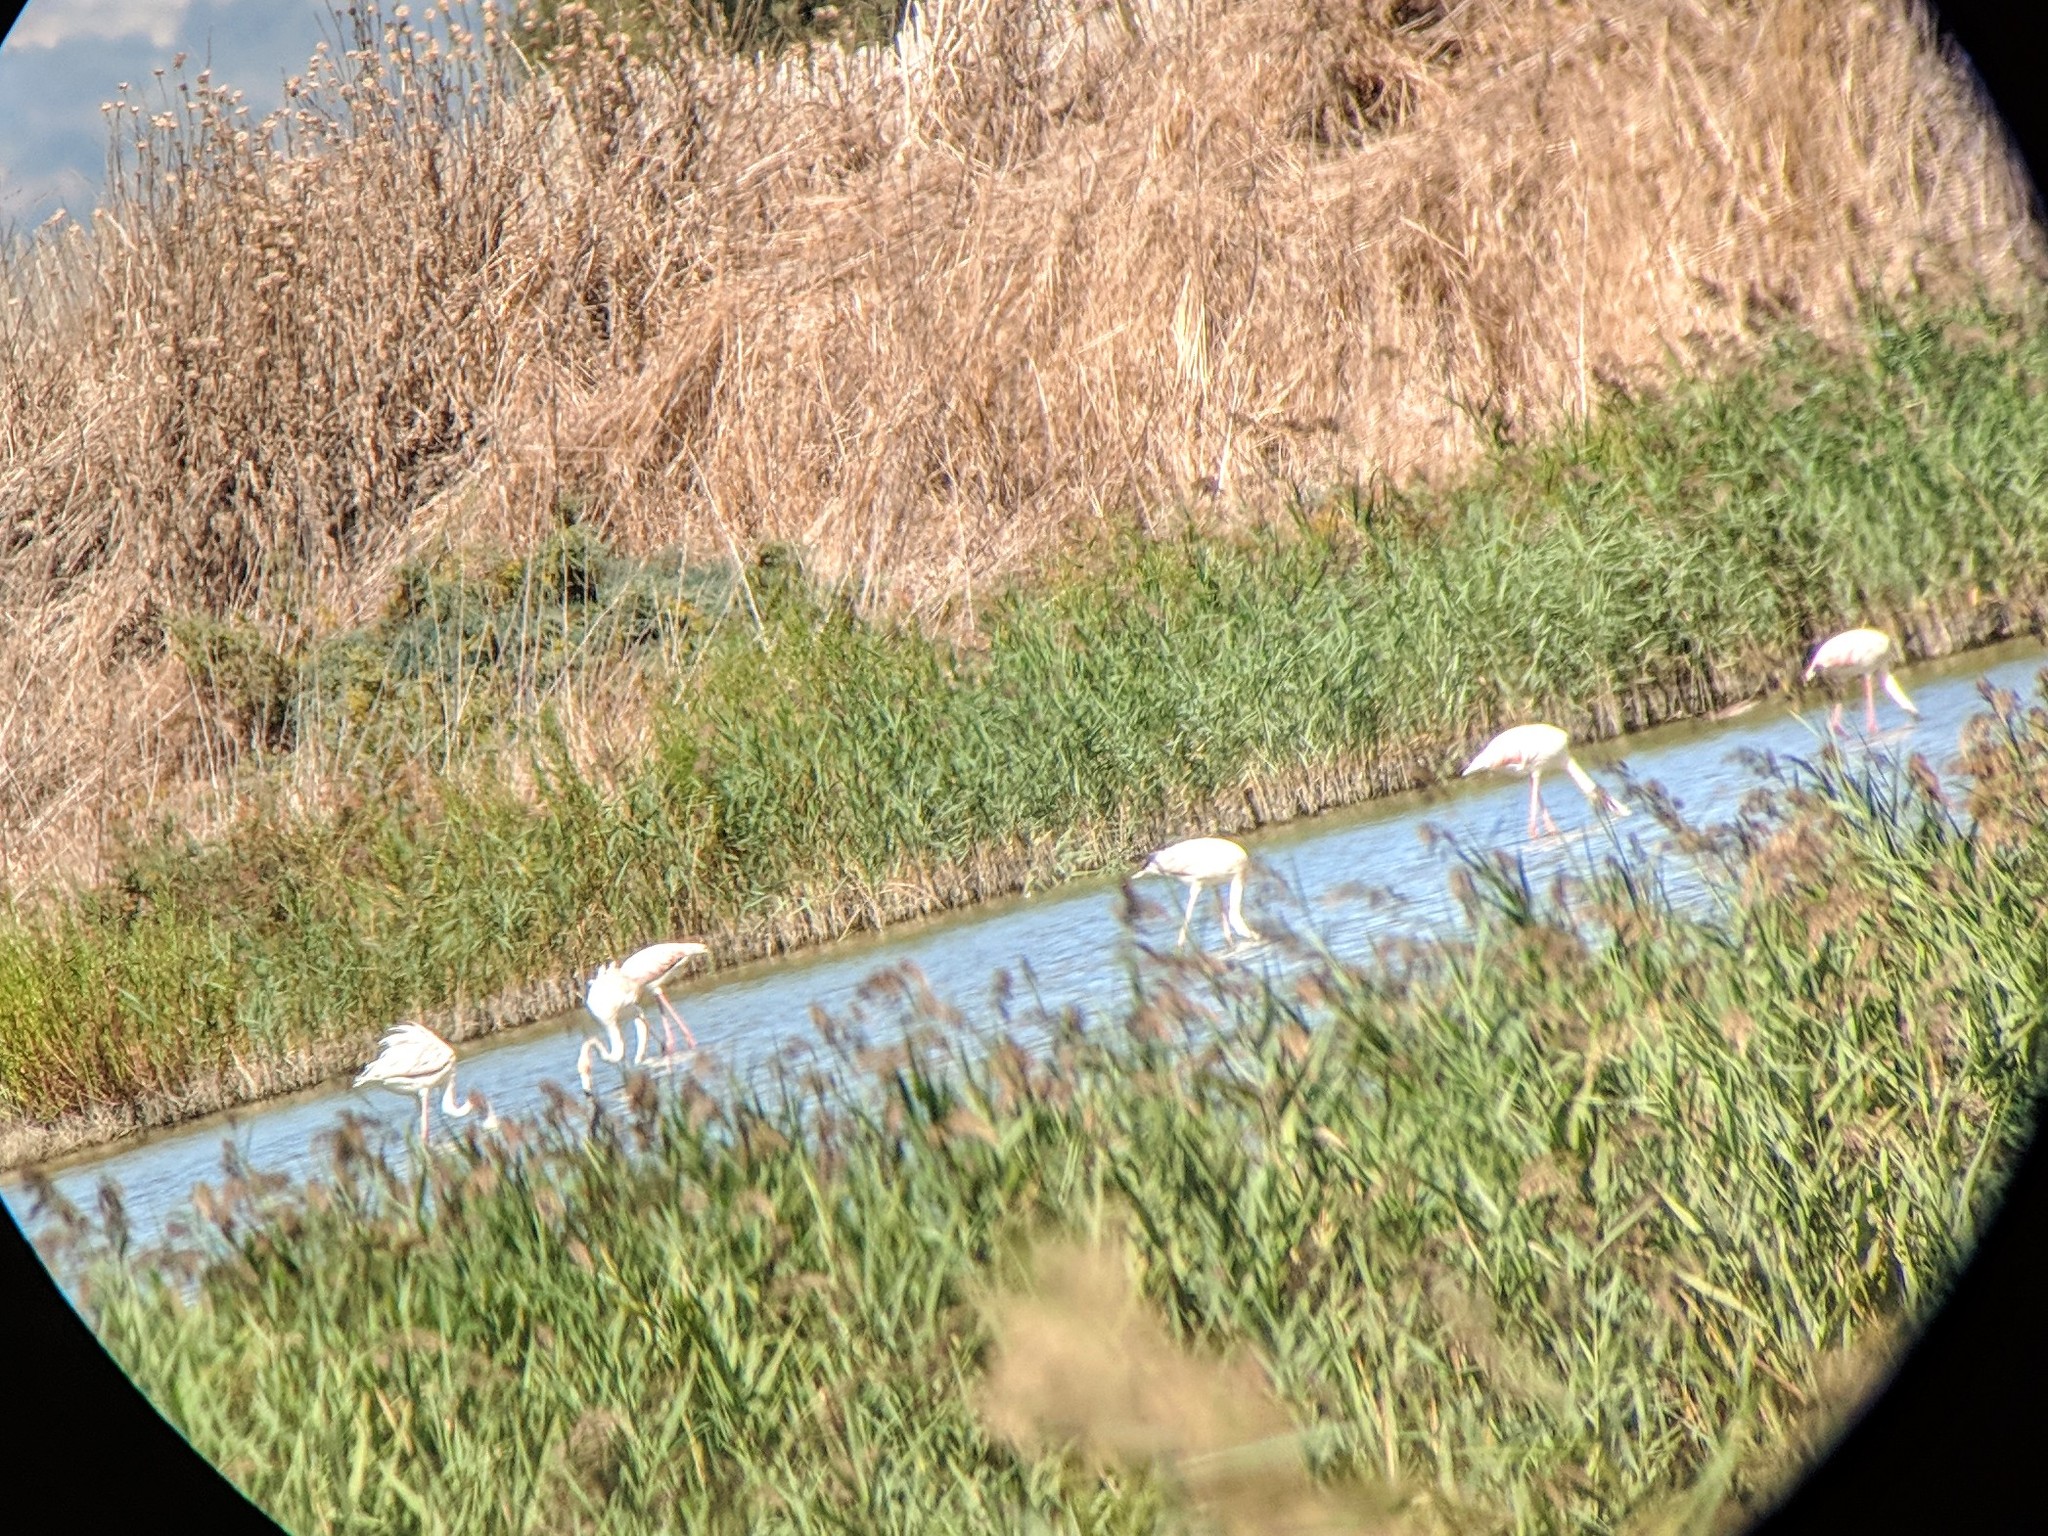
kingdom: Animalia
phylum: Chordata
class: Aves
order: Phoenicopteriformes
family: Phoenicopteridae
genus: Phoenicopterus
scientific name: Phoenicopterus roseus
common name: Greater flamingo
